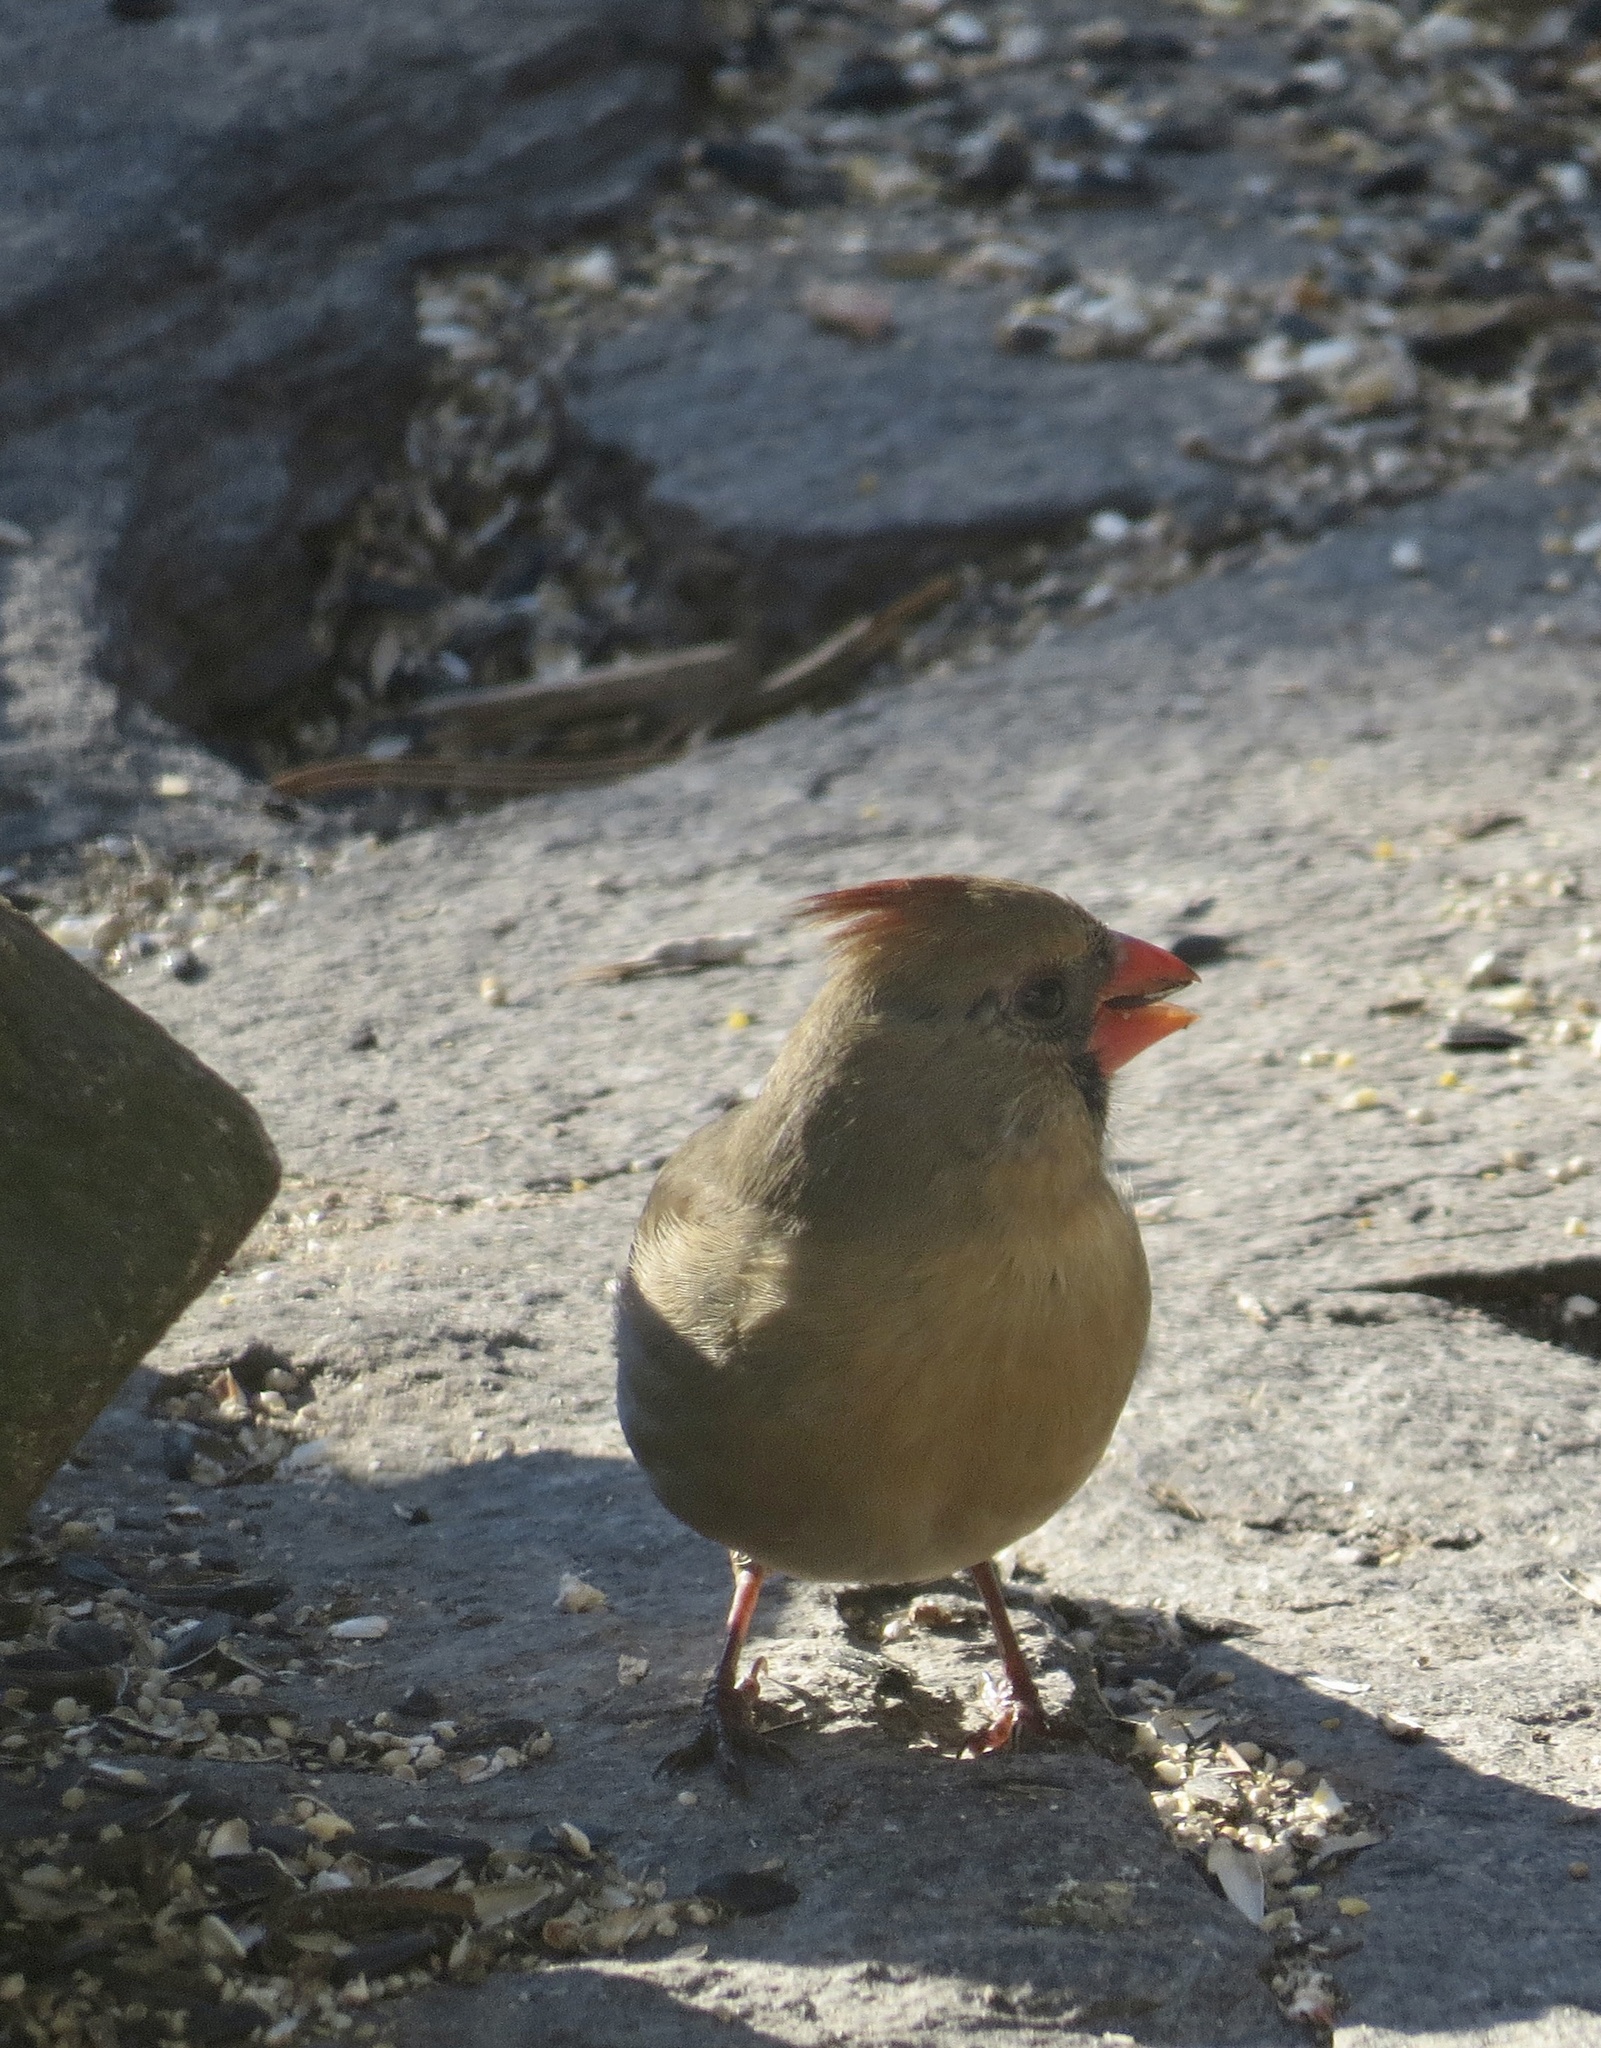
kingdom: Animalia
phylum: Chordata
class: Aves
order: Passeriformes
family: Cardinalidae
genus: Cardinalis
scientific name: Cardinalis cardinalis
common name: Northern cardinal
